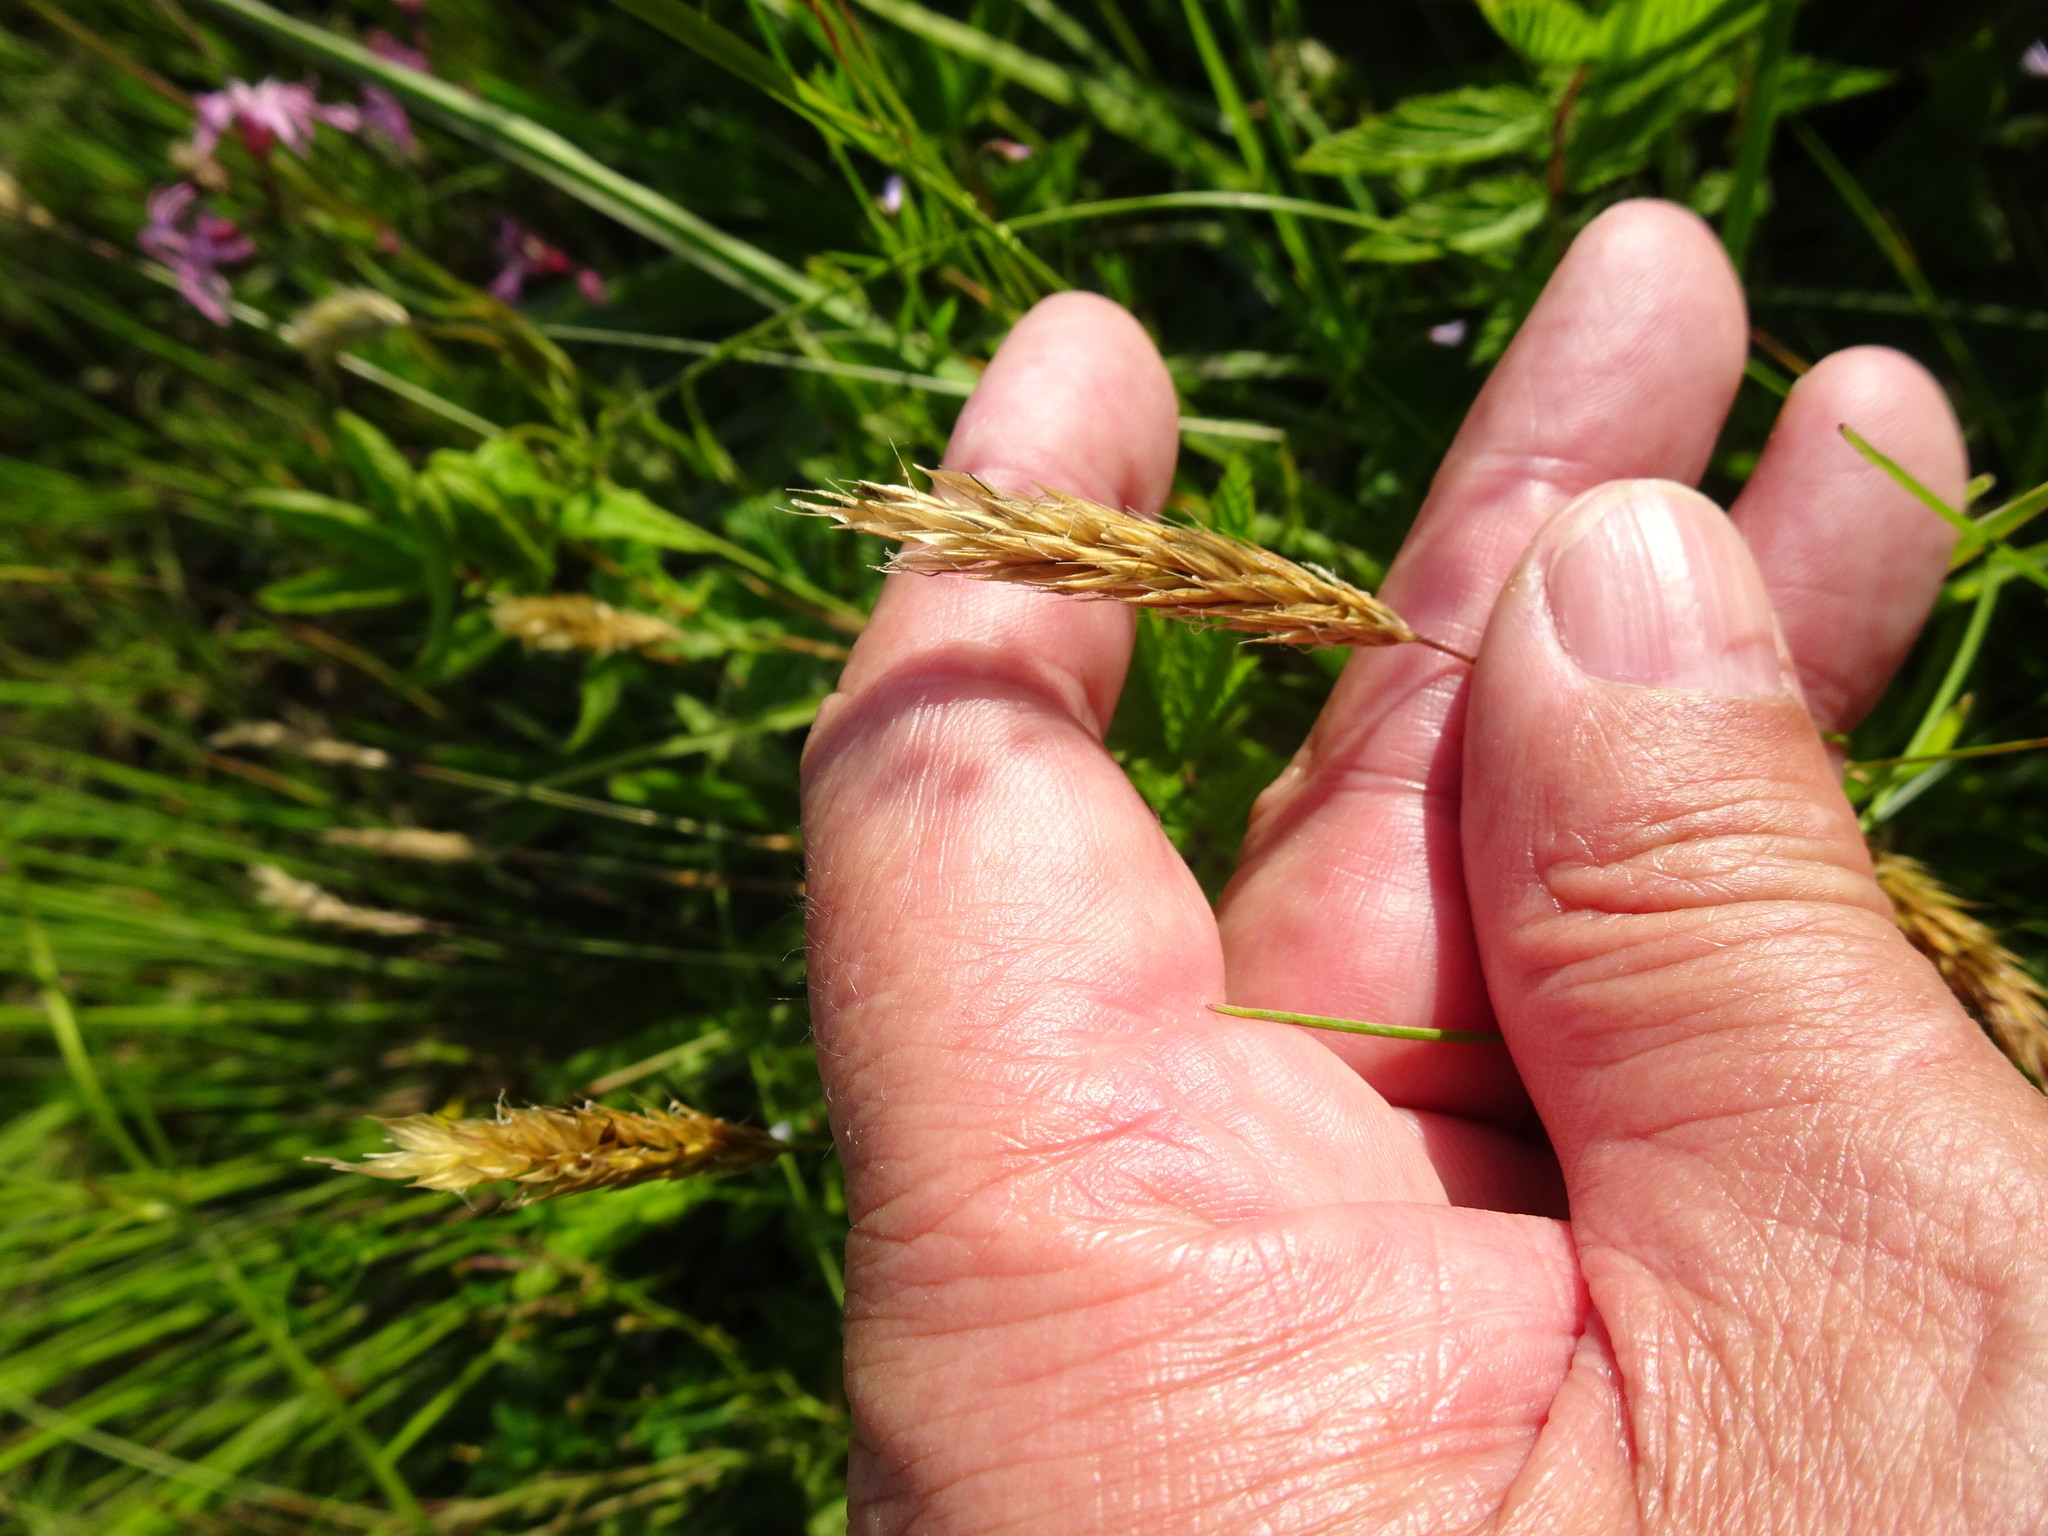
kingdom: Plantae
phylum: Tracheophyta
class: Liliopsida
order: Poales
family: Poaceae
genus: Anthoxanthum
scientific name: Anthoxanthum odoratum
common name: Sweet vernalgrass
